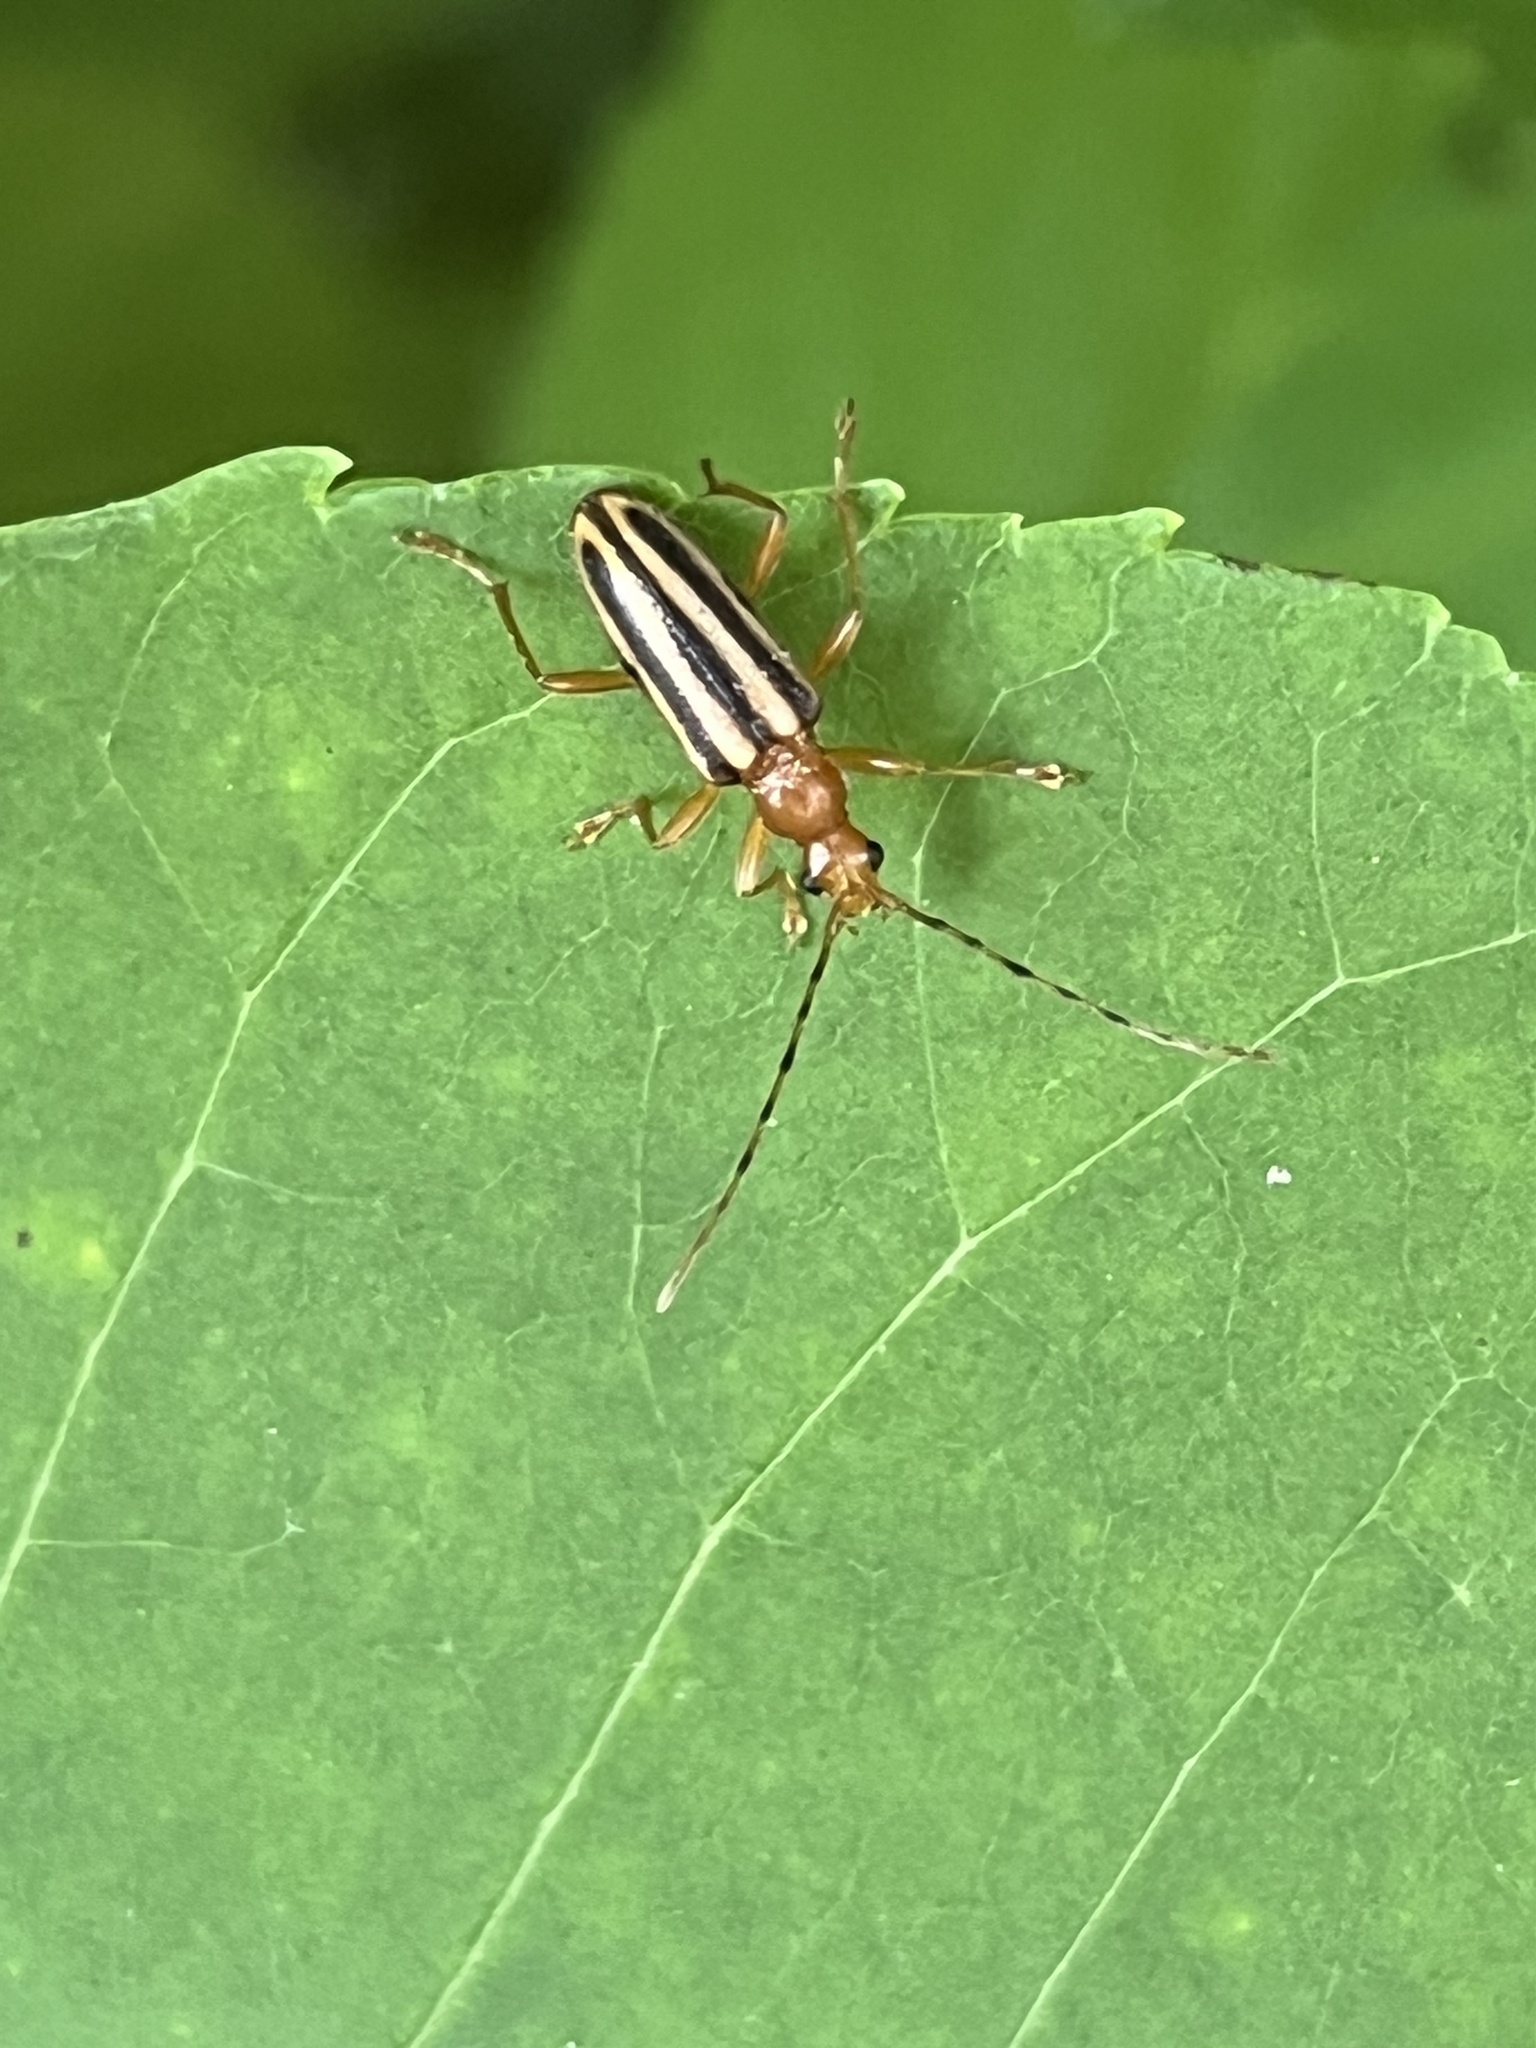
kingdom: Animalia
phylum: Arthropoda
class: Insecta
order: Coleoptera
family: Cerambycidae
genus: Metacmaeops
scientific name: Metacmaeops vittata
